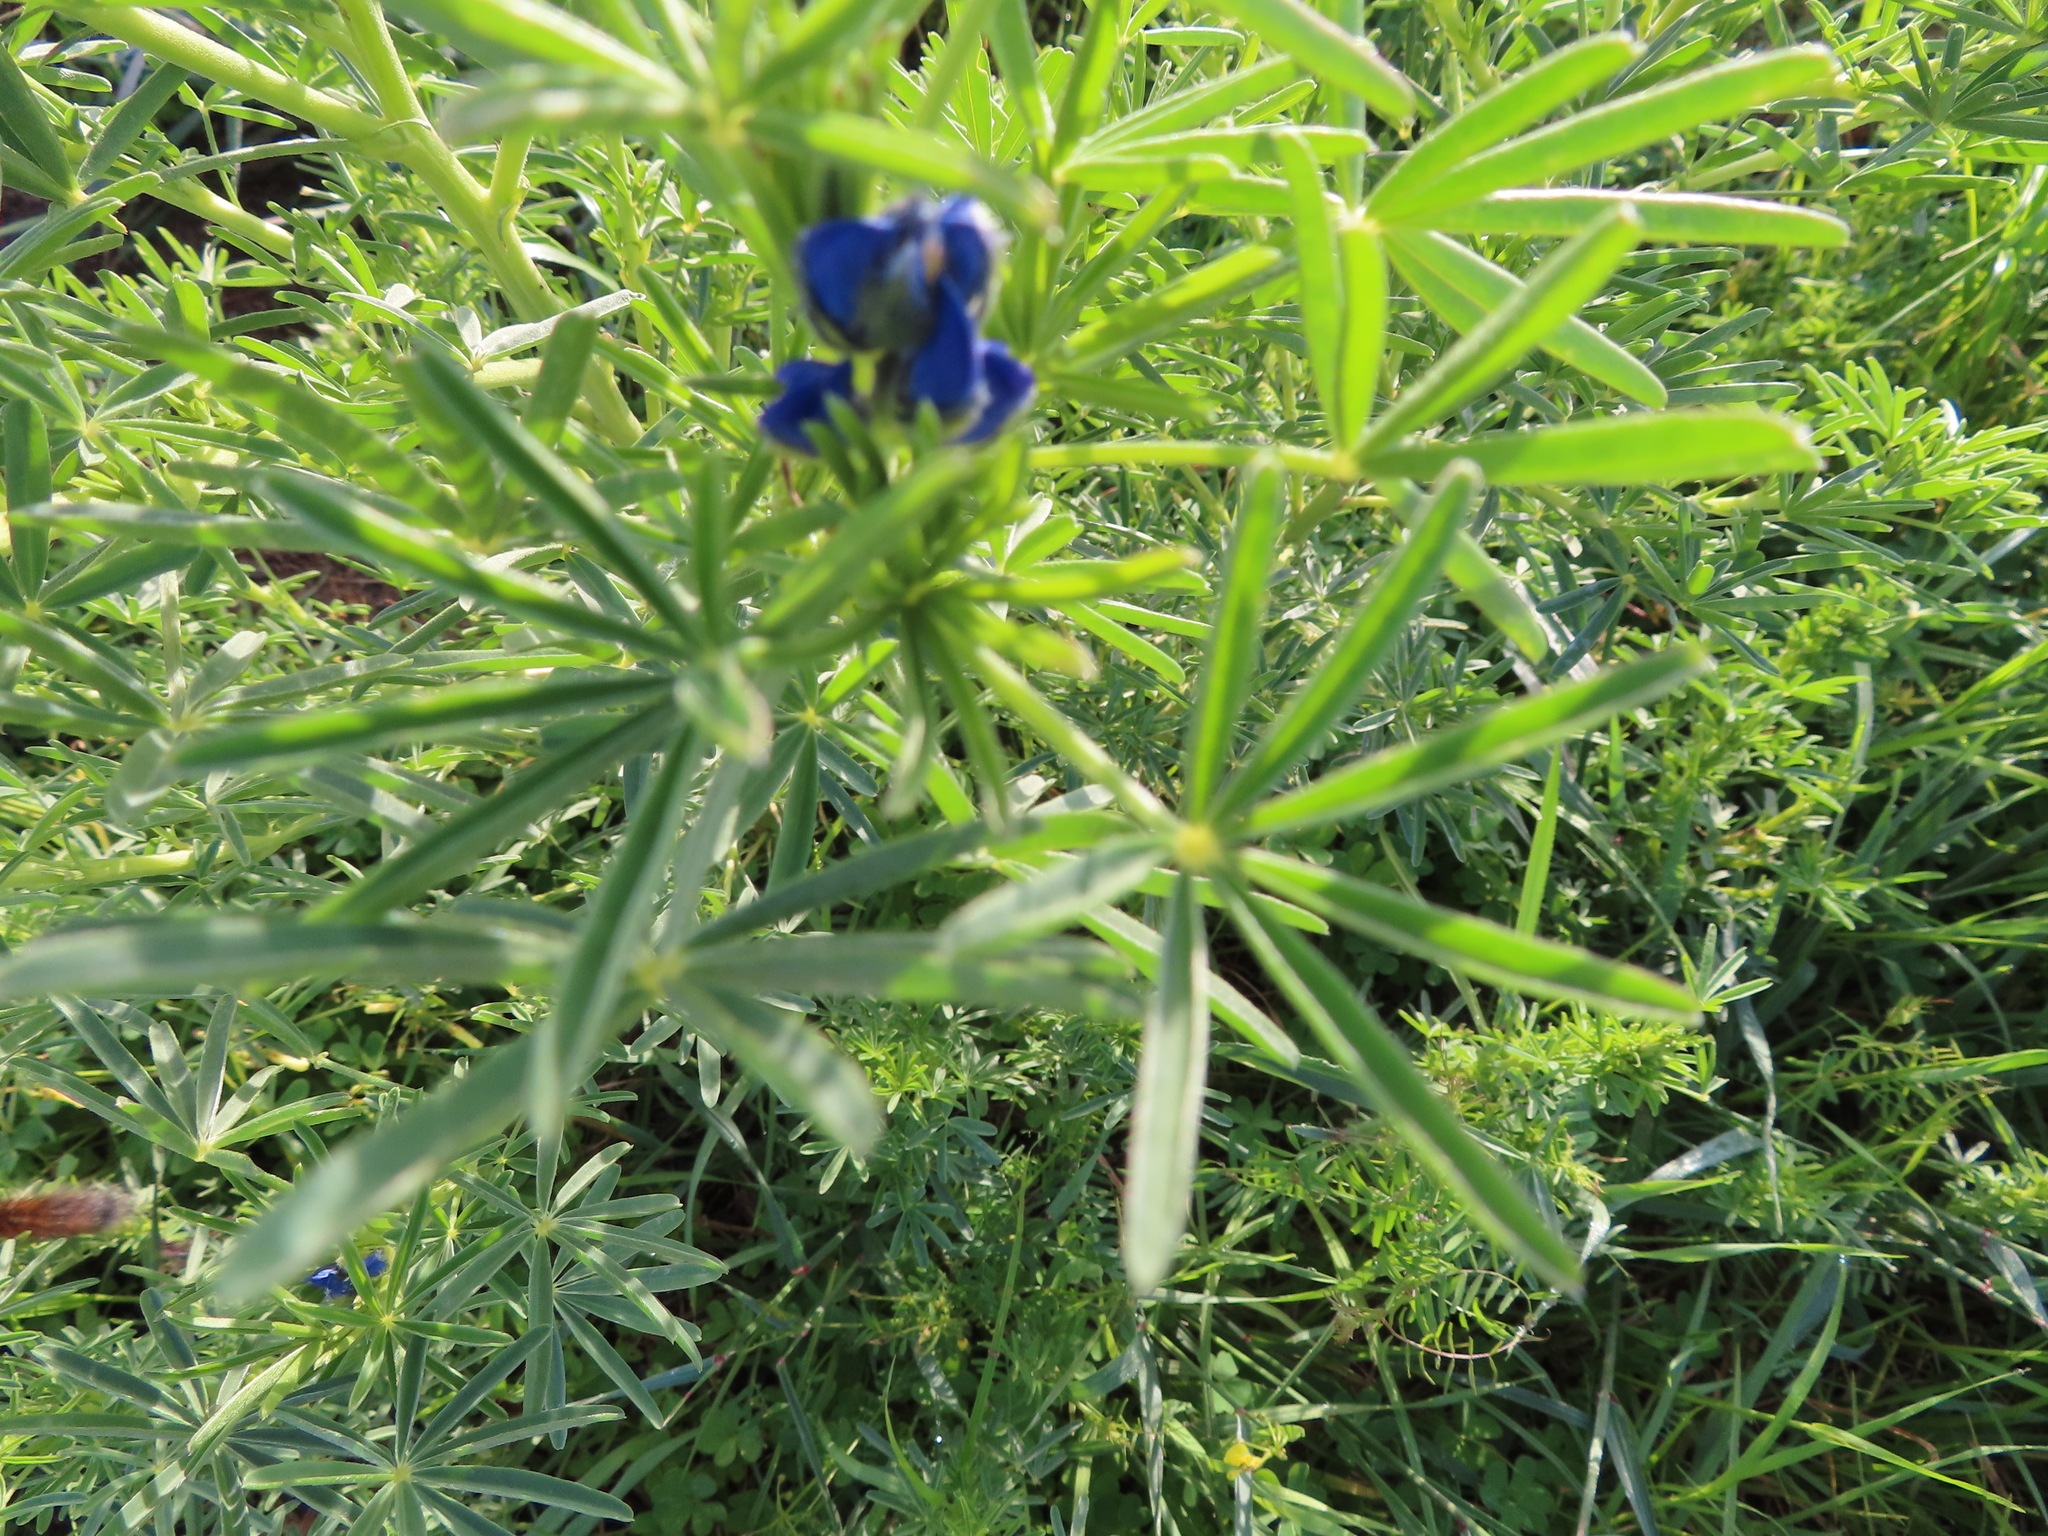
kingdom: Plantae
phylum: Tracheophyta
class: Magnoliopsida
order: Fabales
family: Fabaceae
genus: Lupinus
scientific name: Lupinus angustifolius
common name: Narrow-leaved lupin
